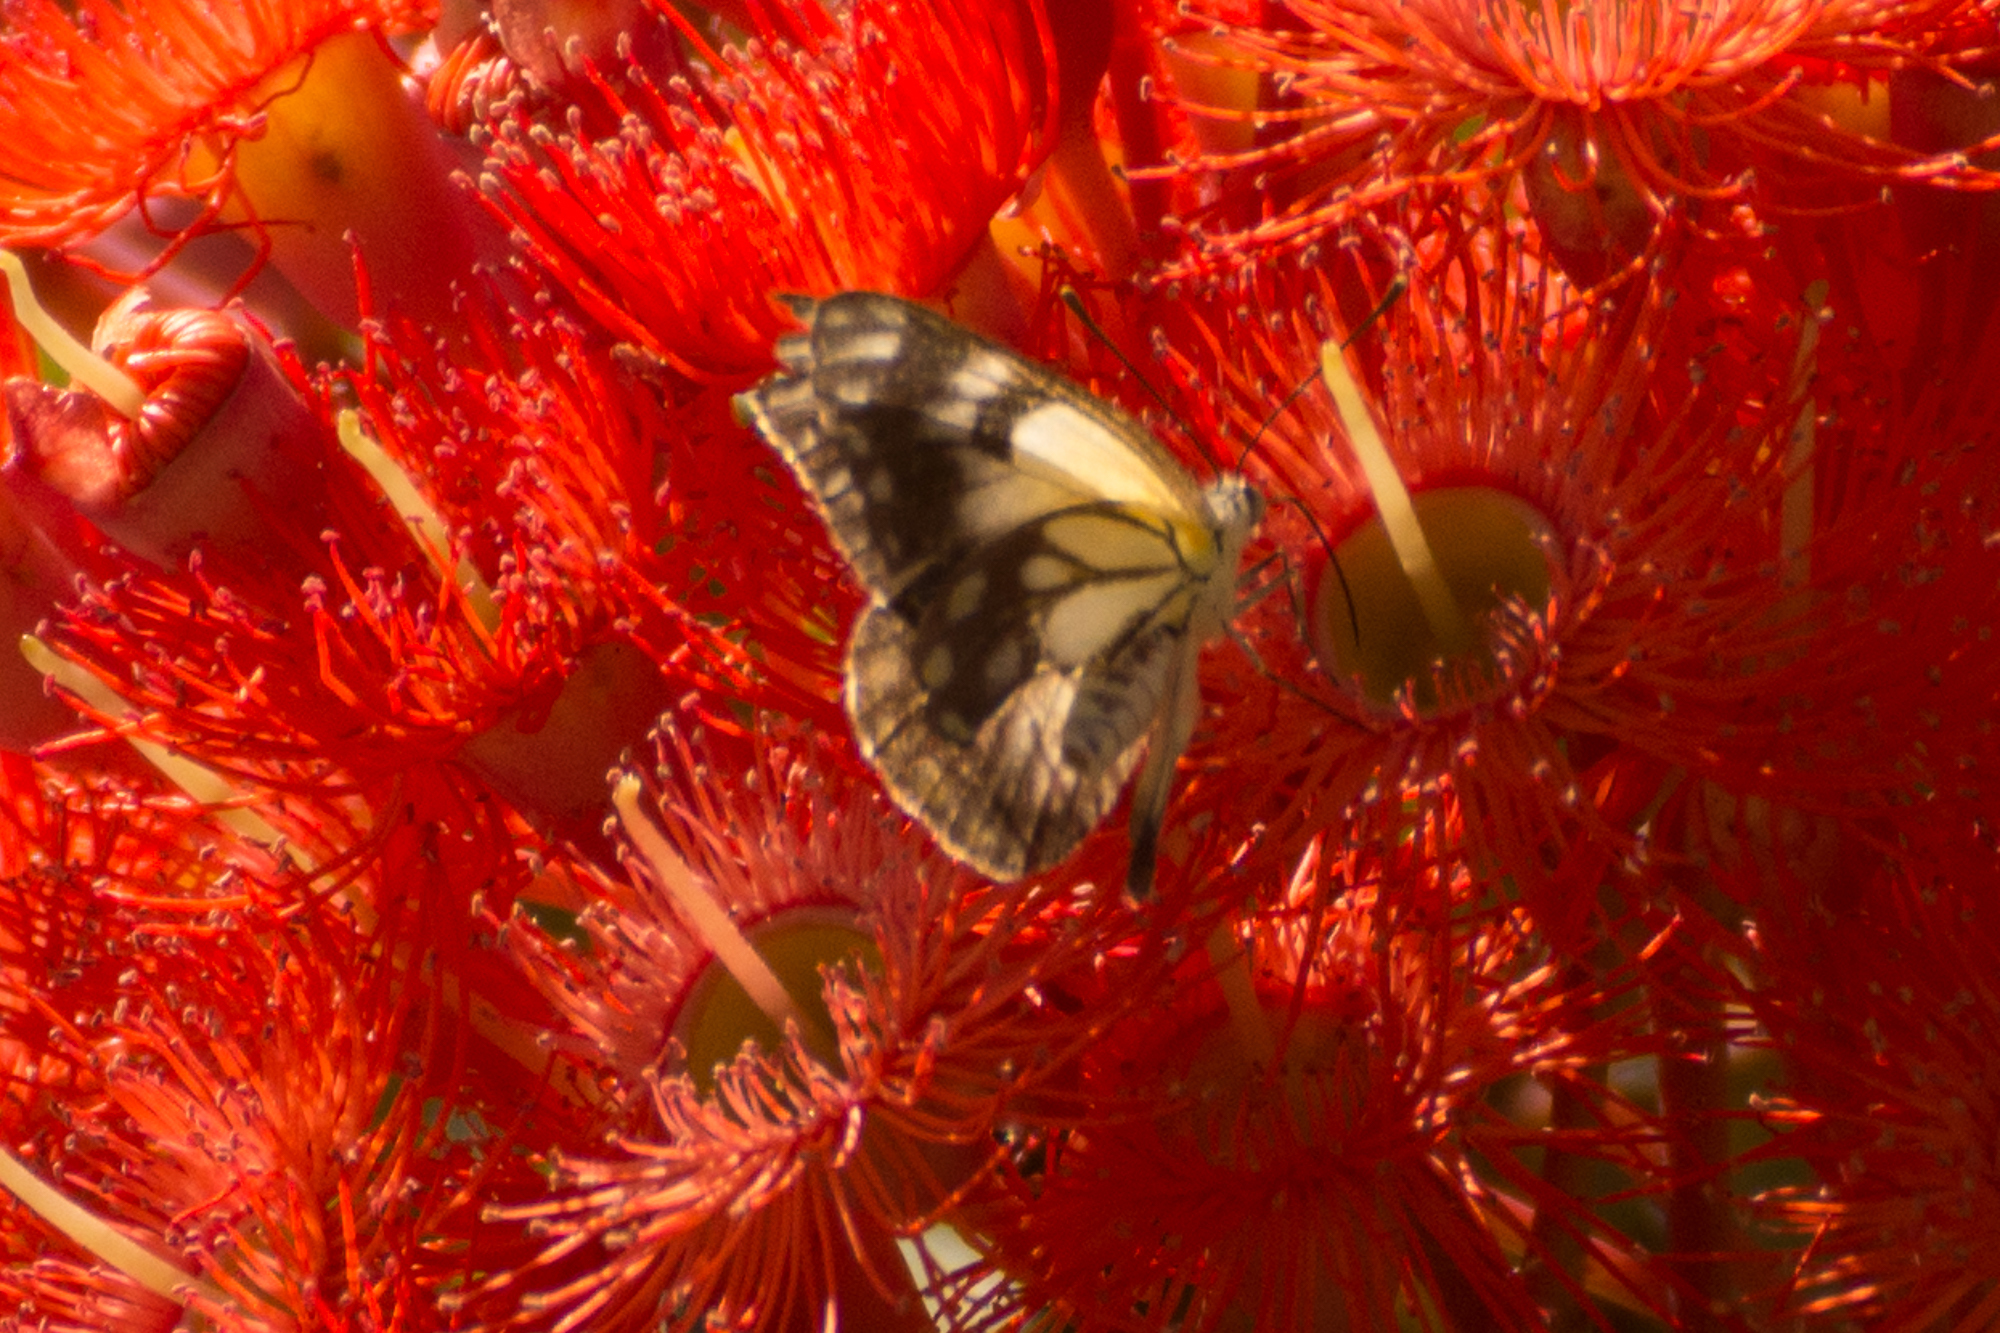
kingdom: Animalia
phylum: Arthropoda
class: Insecta
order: Lepidoptera
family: Pieridae
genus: Belenois
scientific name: Belenois java
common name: Caper white
